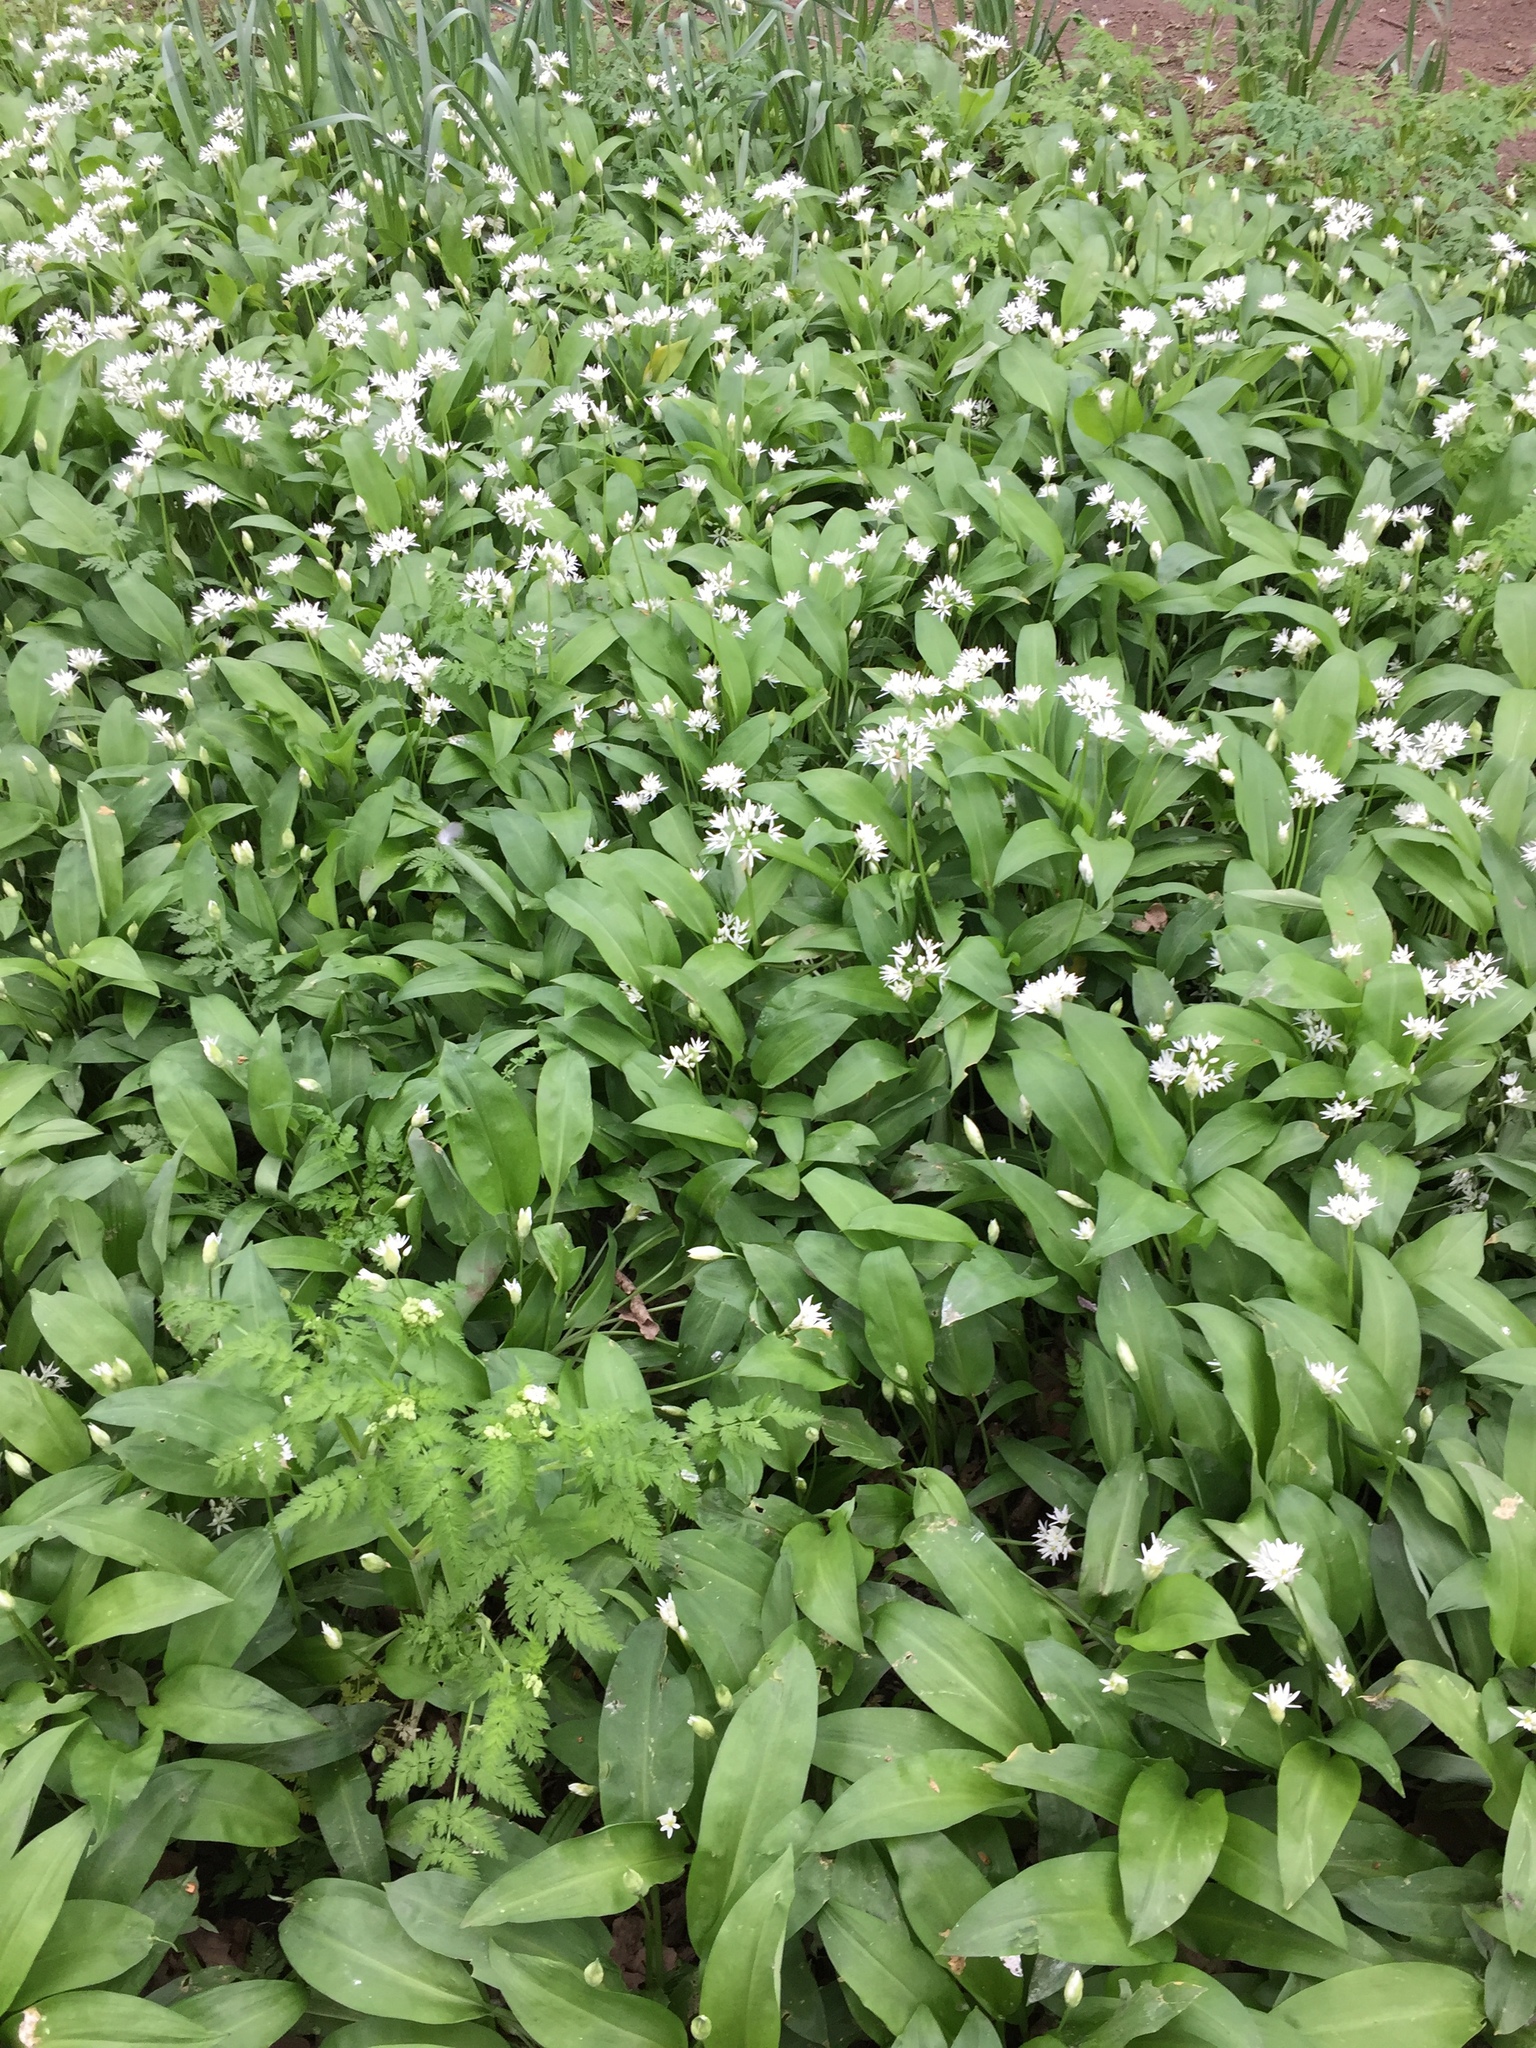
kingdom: Plantae
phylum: Tracheophyta
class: Liliopsida
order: Asparagales
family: Amaryllidaceae
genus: Allium
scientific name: Allium ursinum
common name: Ramsons
